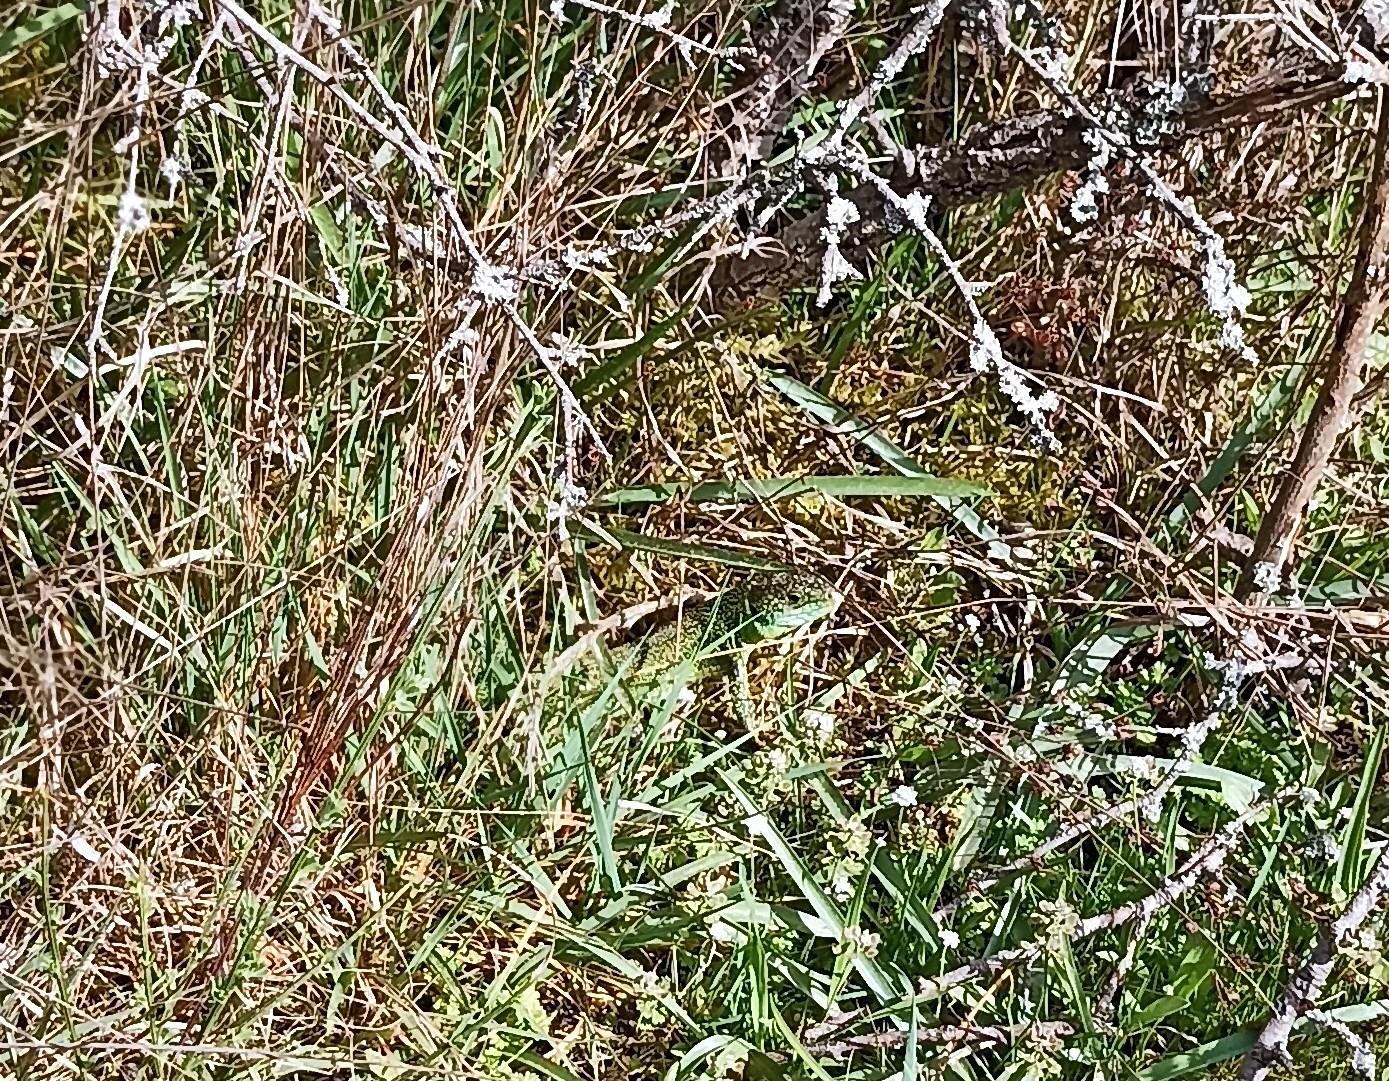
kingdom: Animalia
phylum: Chordata
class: Squamata
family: Lacertidae
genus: Lacerta
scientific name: Lacerta bilineata
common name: Western green lizard
